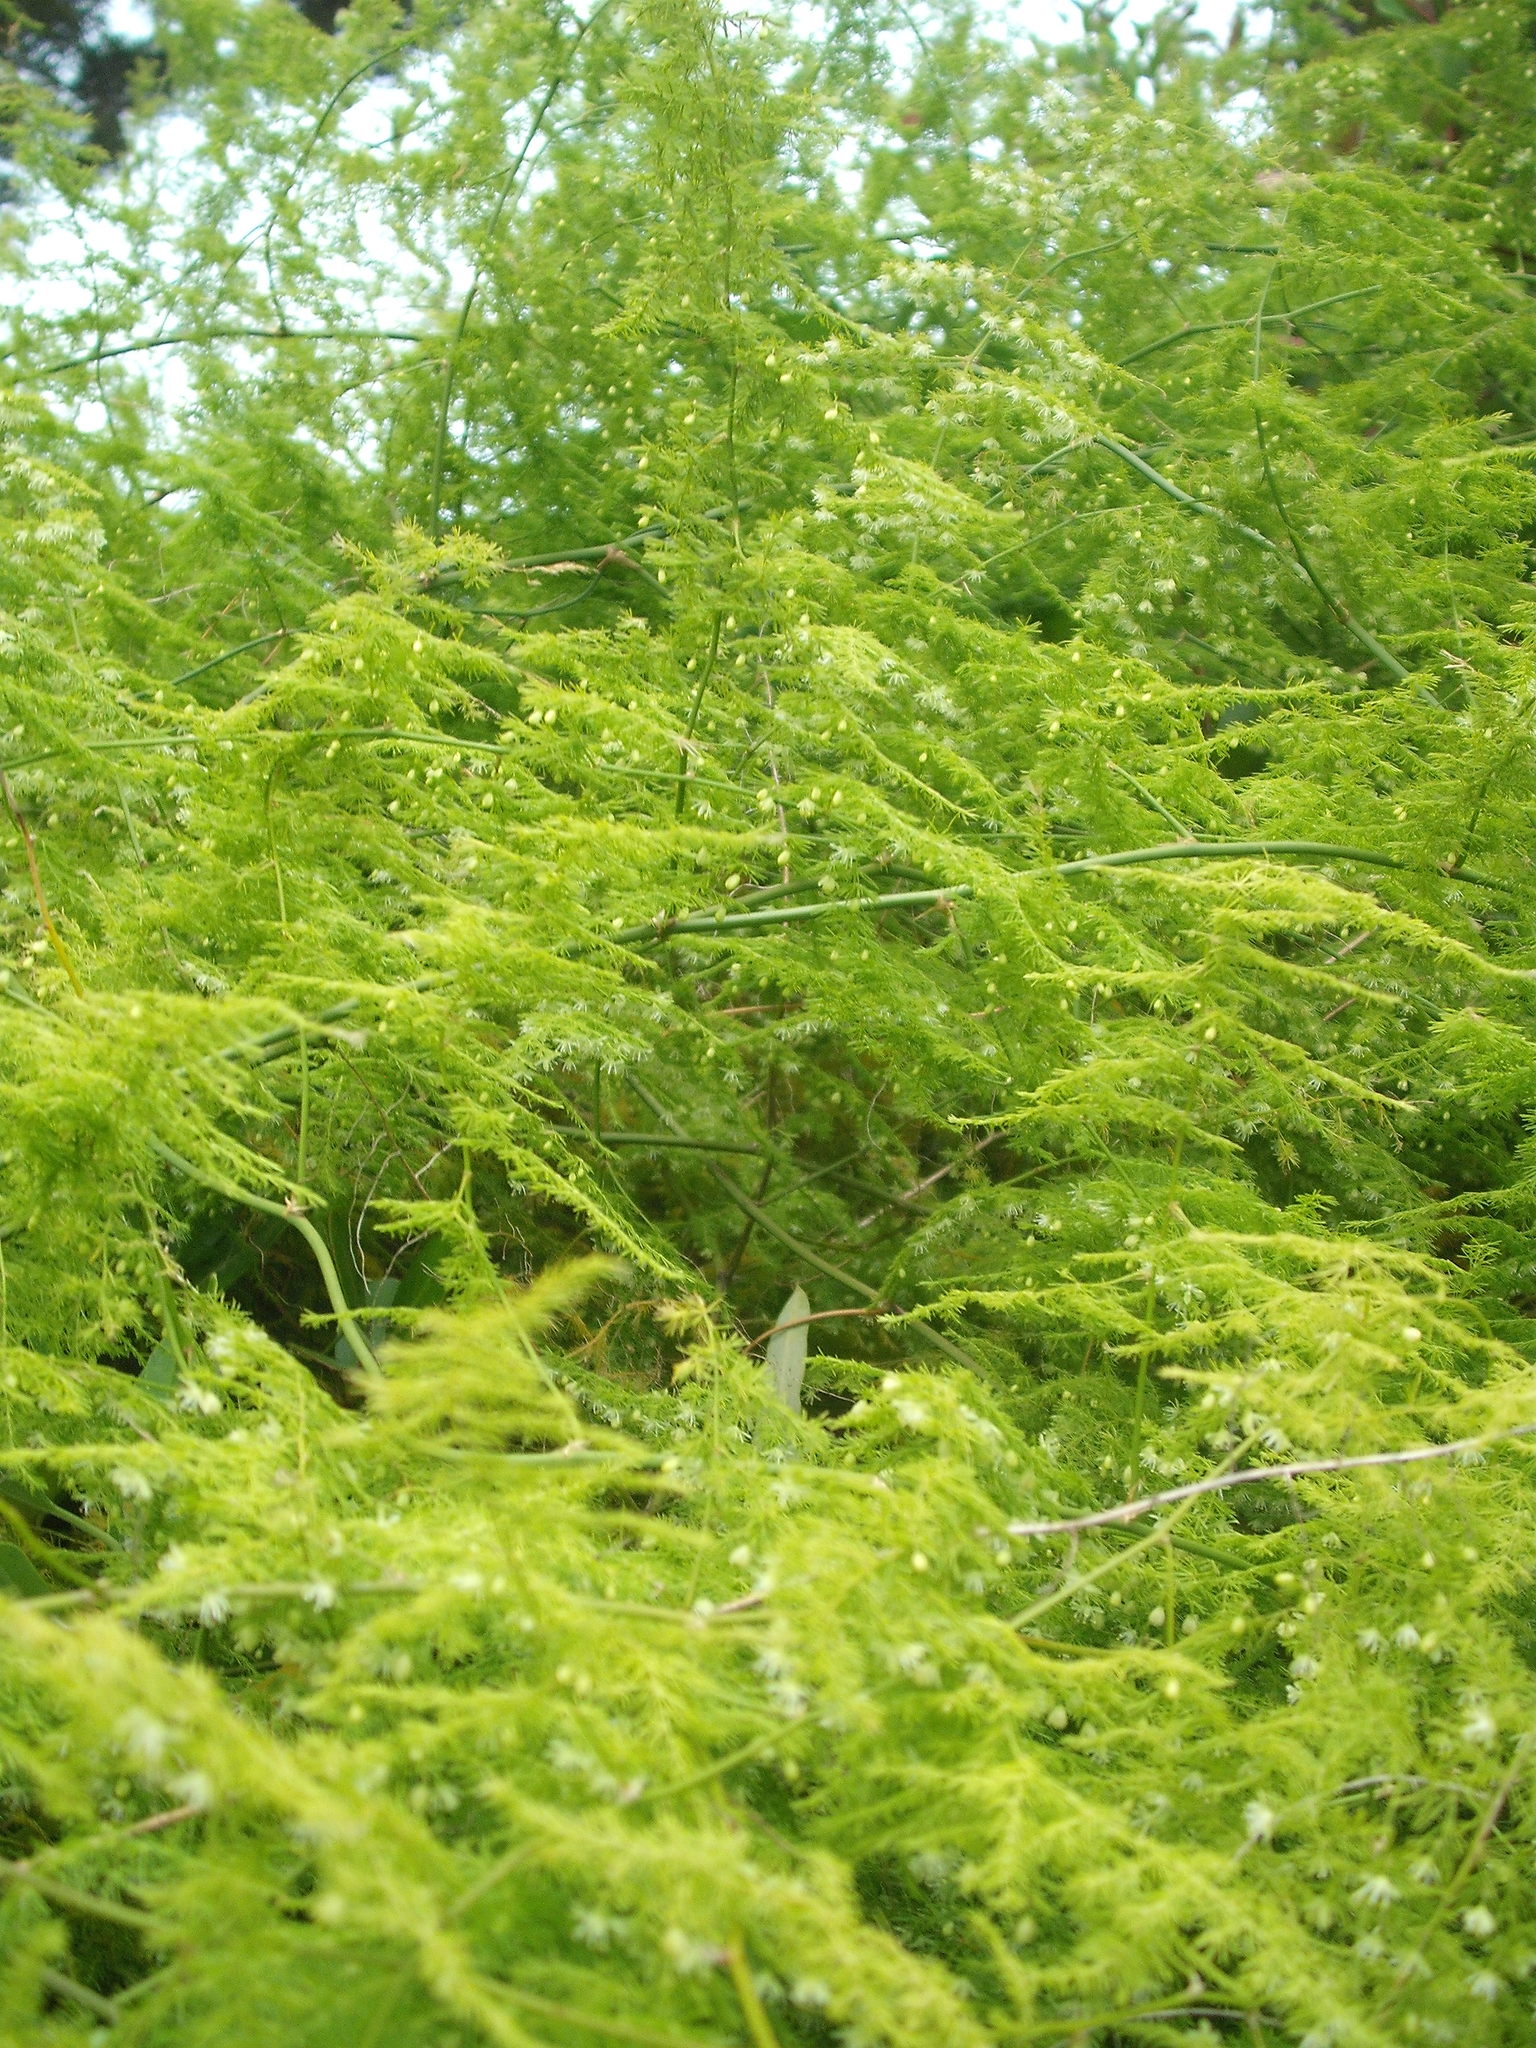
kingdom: Plantae
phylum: Tracheophyta
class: Liliopsida
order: Asparagales
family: Asparagaceae
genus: Asparagus
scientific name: Asparagus setaceus
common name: Common asparagus fern
